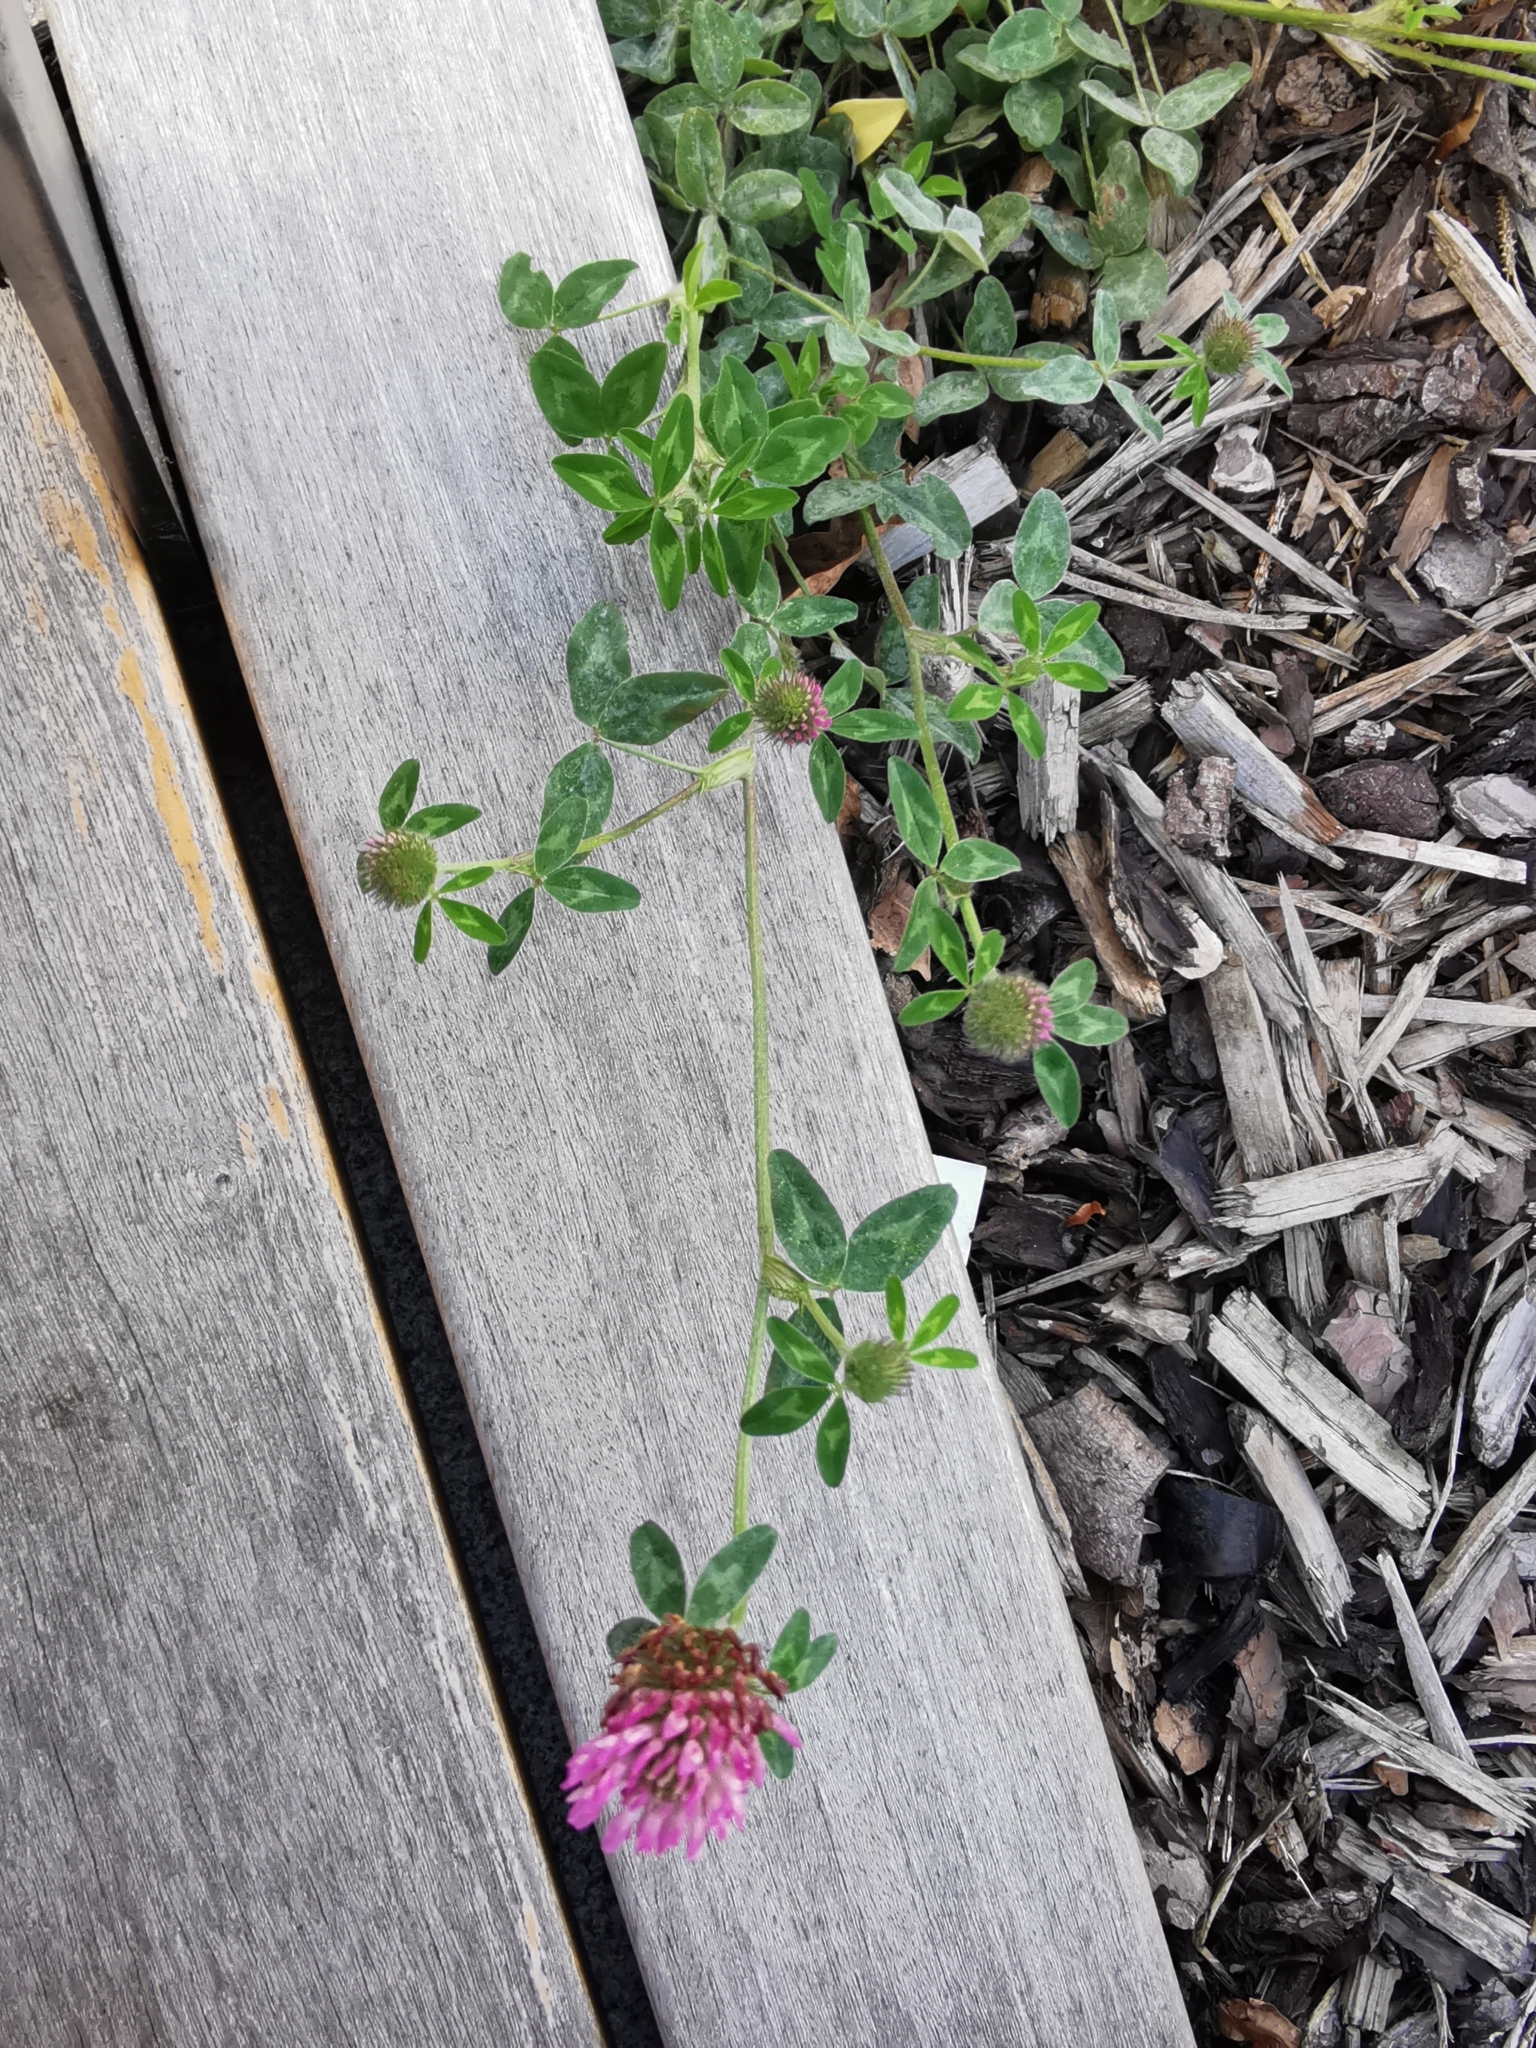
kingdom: Plantae
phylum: Tracheophyta
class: Magnoliopsida
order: Fabales
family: Fabaceae
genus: Trifolium
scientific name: Trifolium pratense
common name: Red clover
